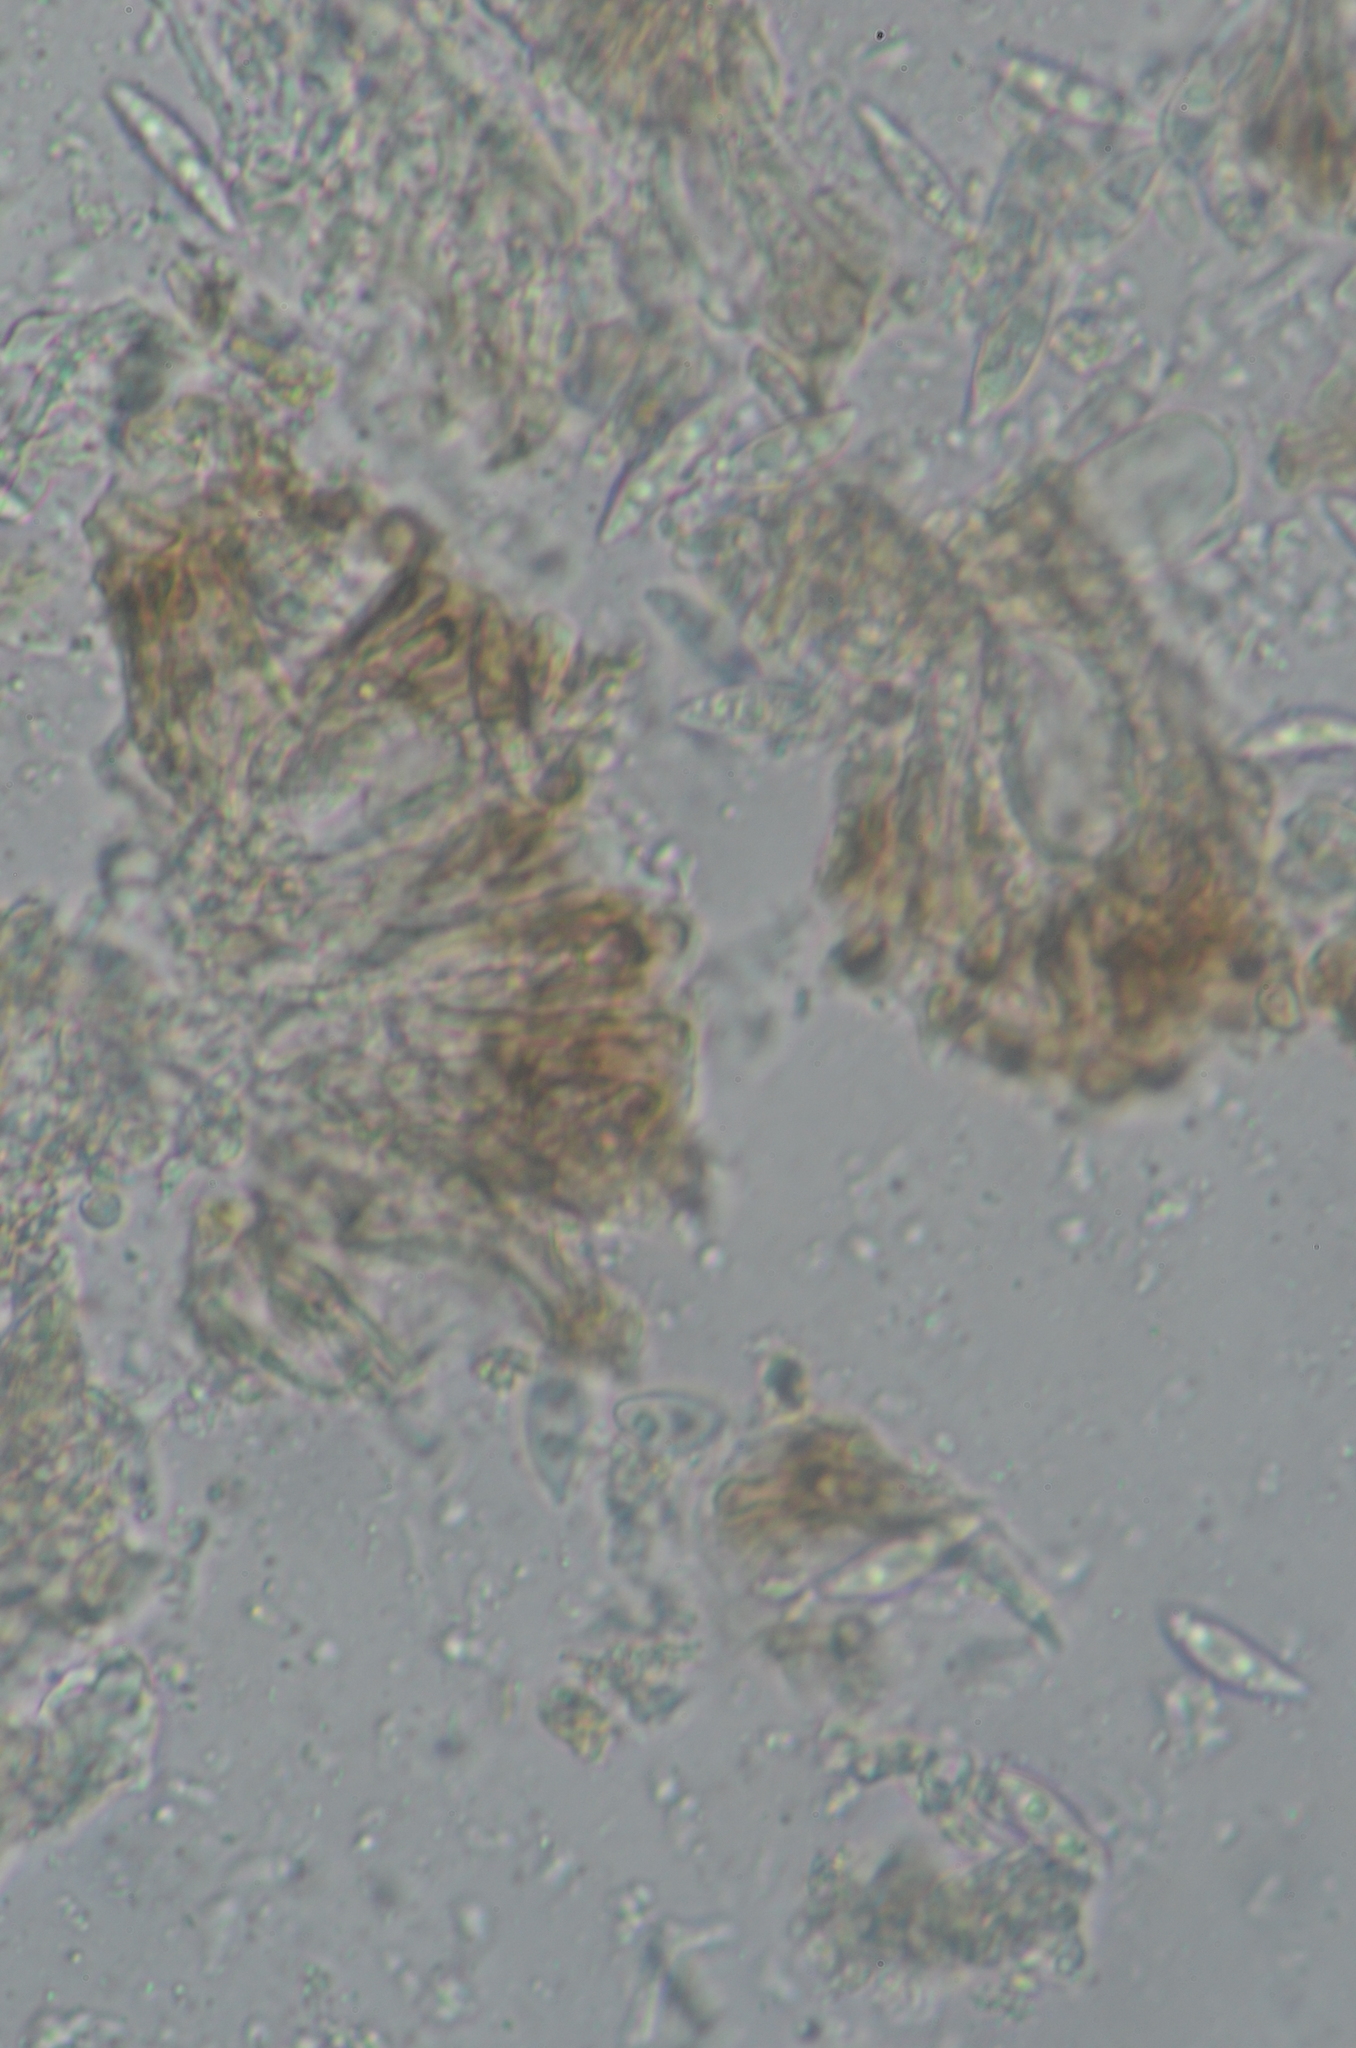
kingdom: Fungi
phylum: Ascomycota
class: Lecanoromycetes
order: Lecanorales
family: Parmeliaceae
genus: Punctelia
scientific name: Punctelia oxyspora
